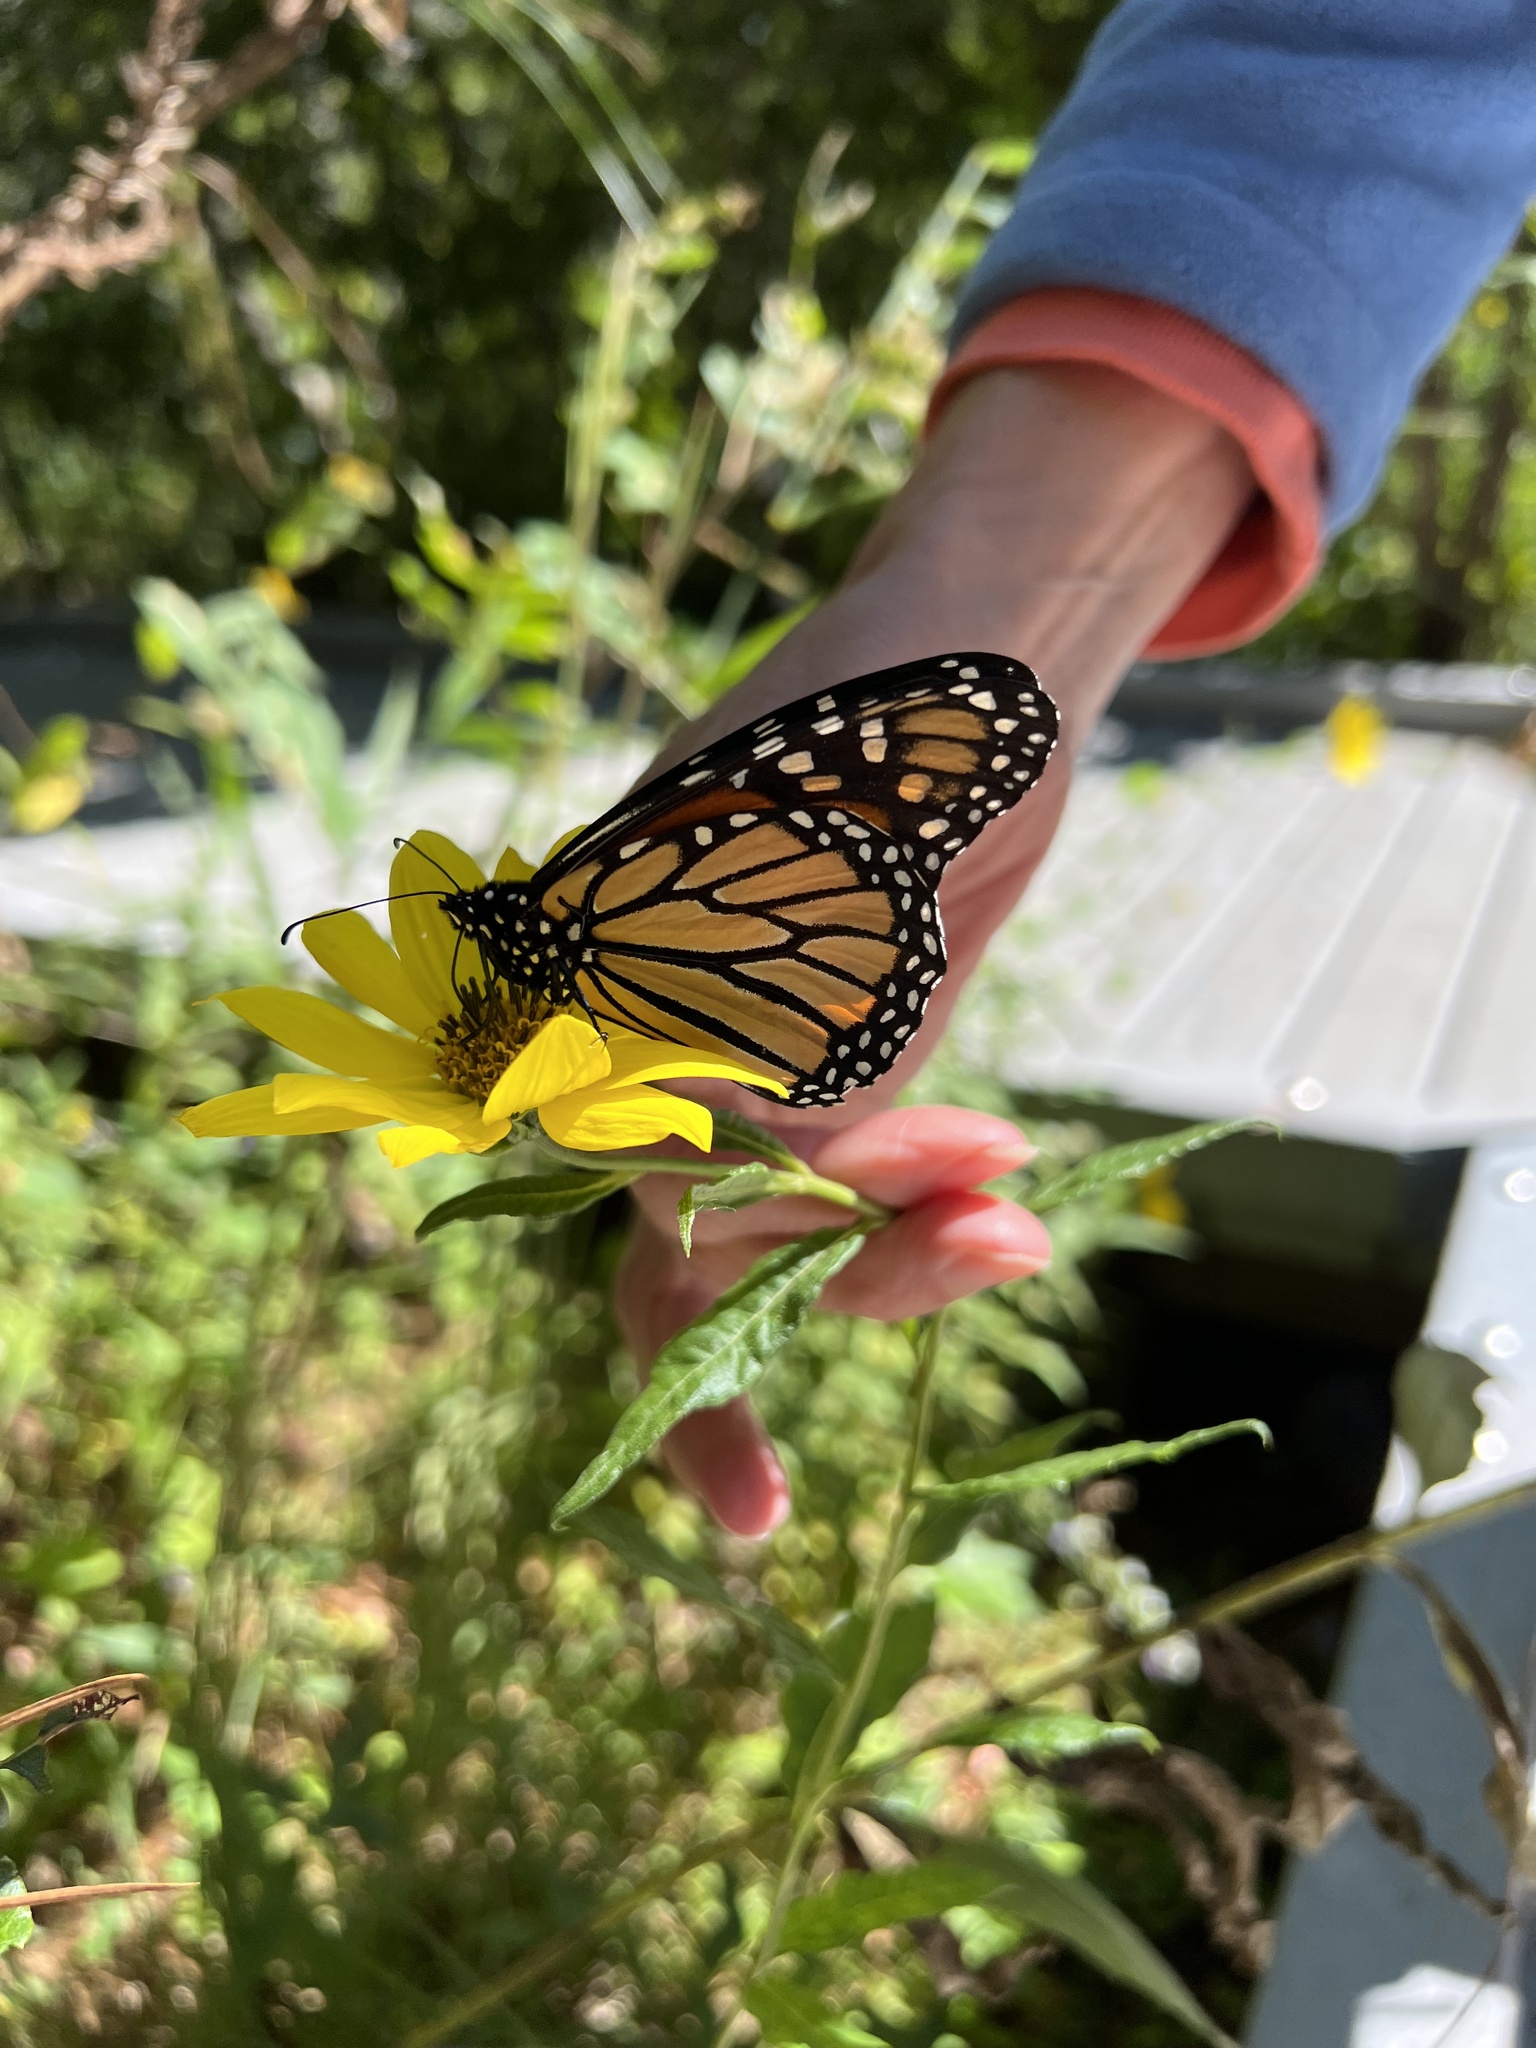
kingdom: Animalia
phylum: Arthropoda
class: Insecta
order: Lepidoptera
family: Nymphalidae
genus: Danaus
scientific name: Danaus plexippus
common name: Monarch
